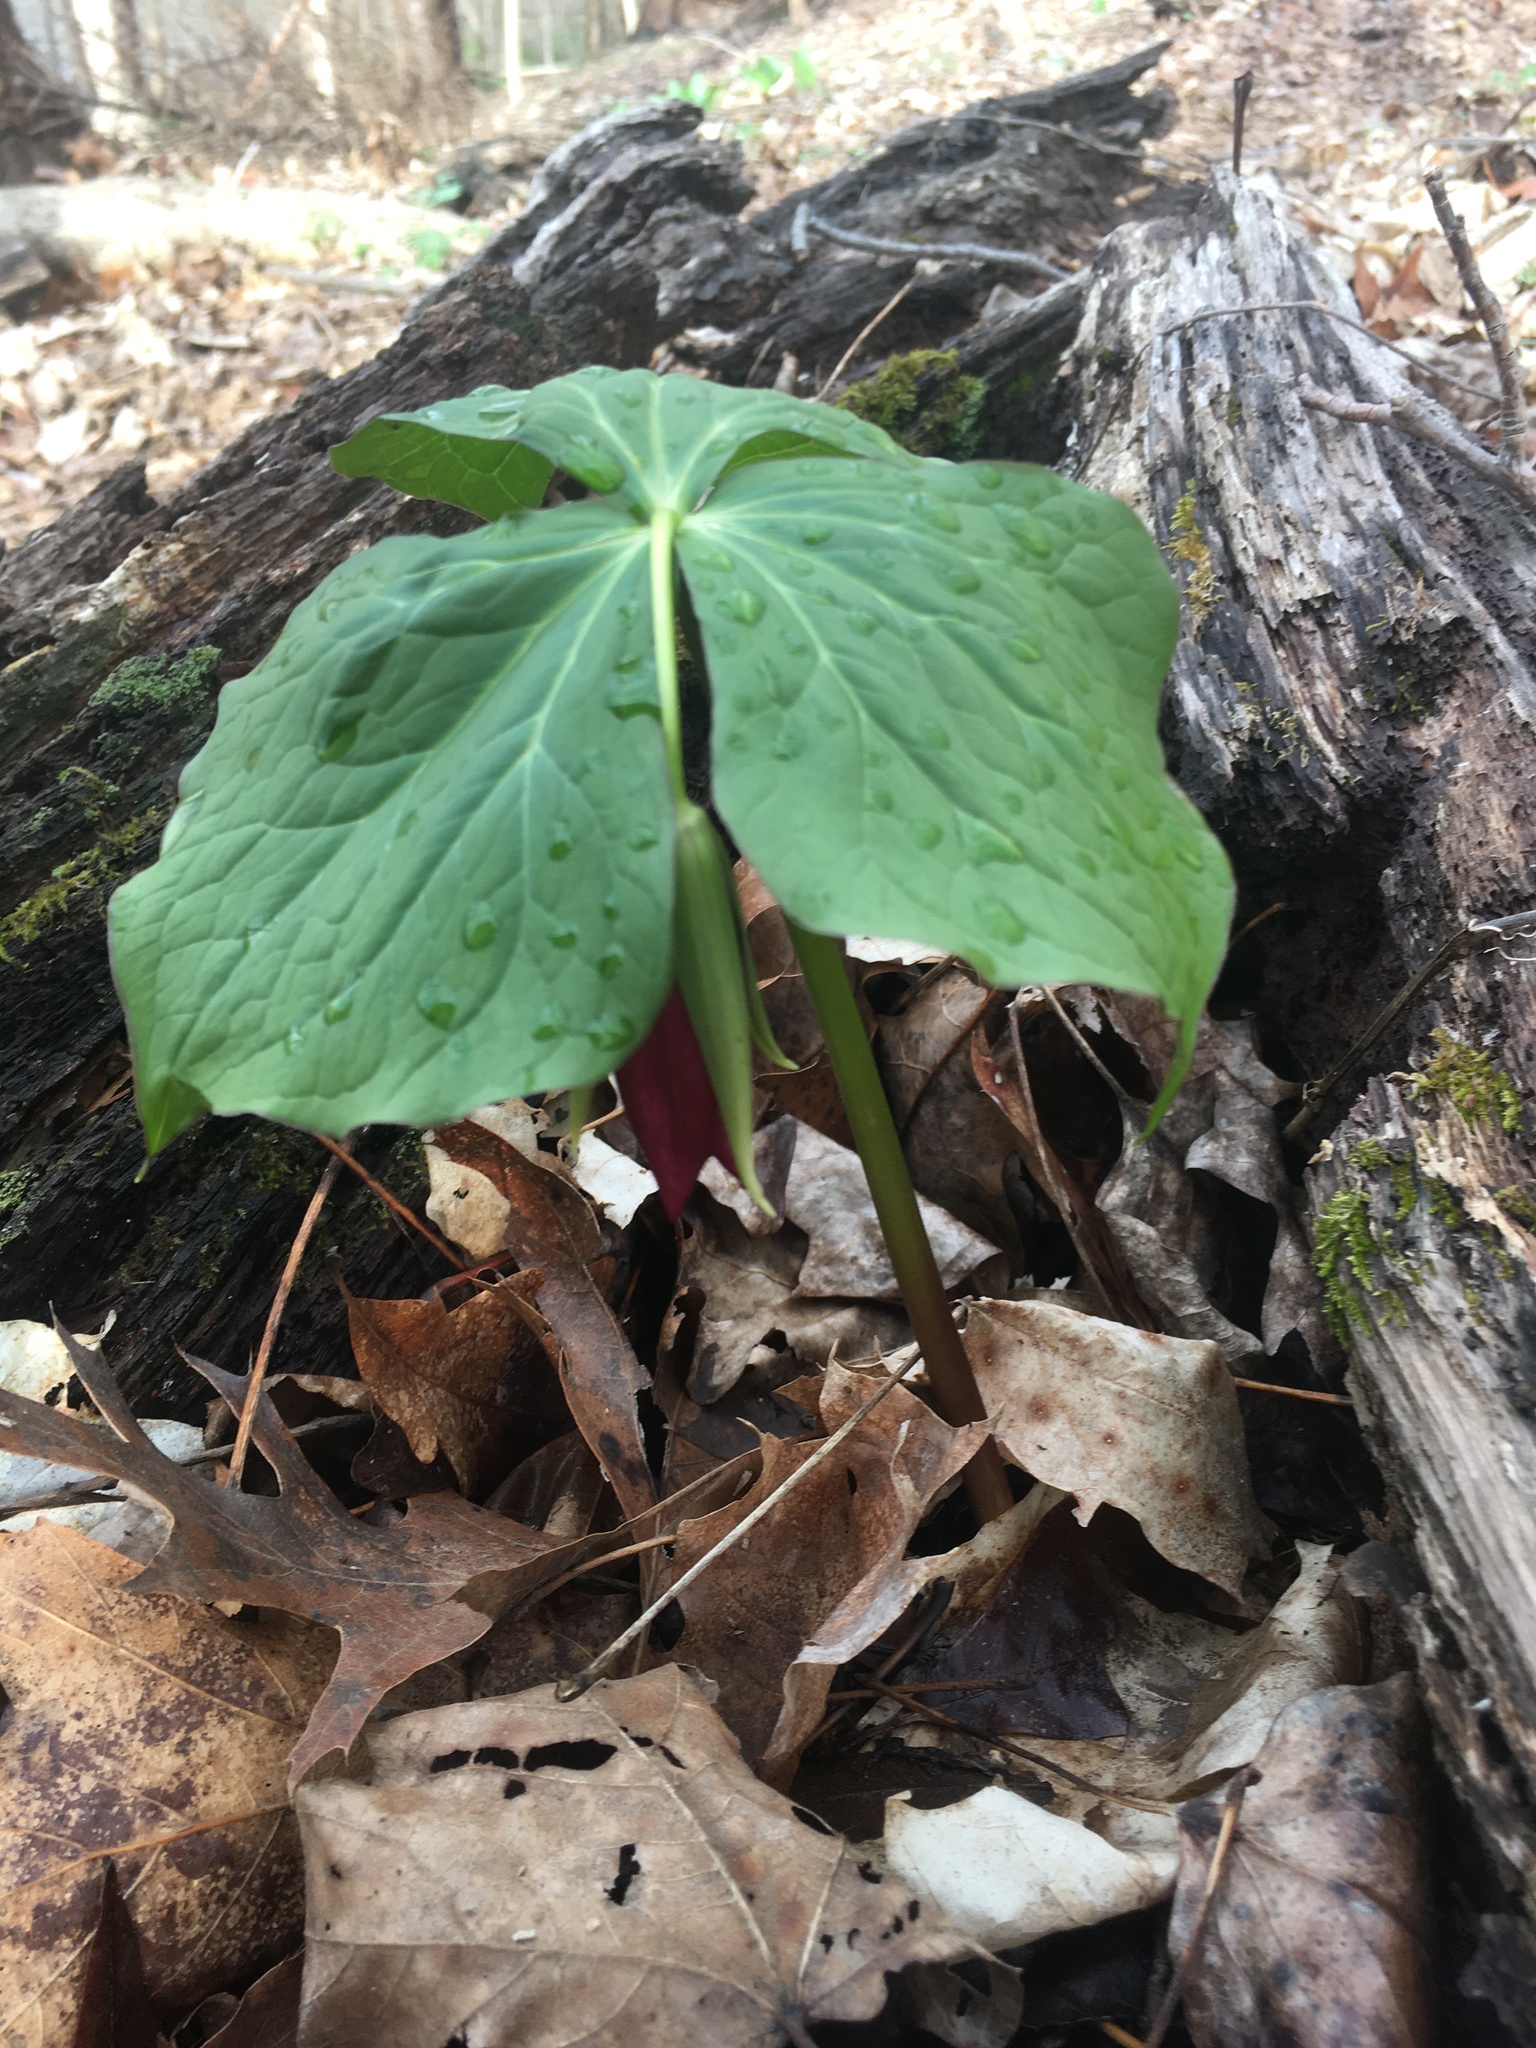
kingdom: Plantae
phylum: Tracheophyta
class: Liliopsida
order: Liliales
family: Melanthiaceae
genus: Trillium
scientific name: Trillium erectum
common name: Purple trillium
